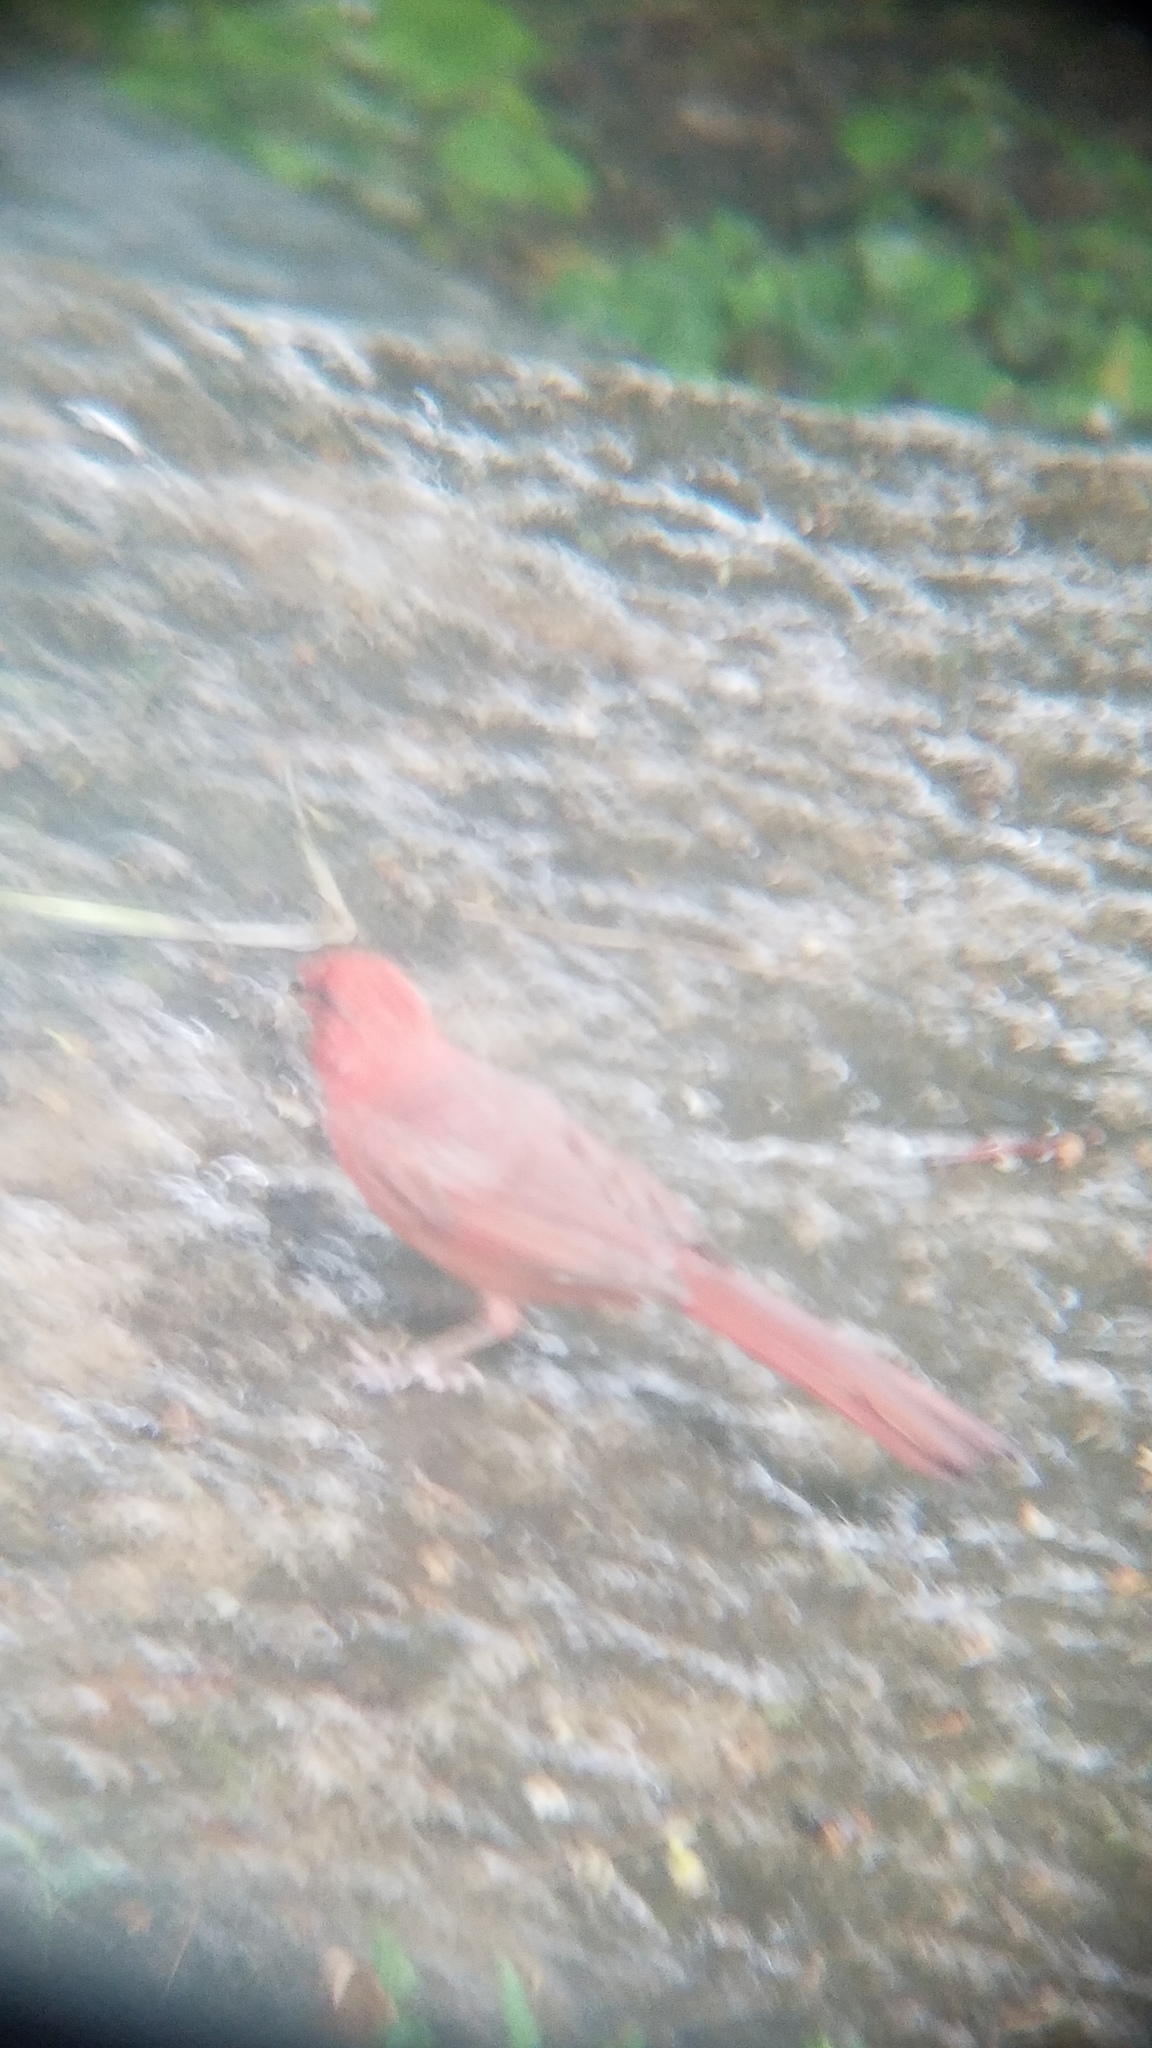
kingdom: Animalia
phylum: Chordata
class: Aves
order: Passeriformes
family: Cardinalidae
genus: Cardinalis
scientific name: Cardinalis cardinalis
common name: Northern cardinal
